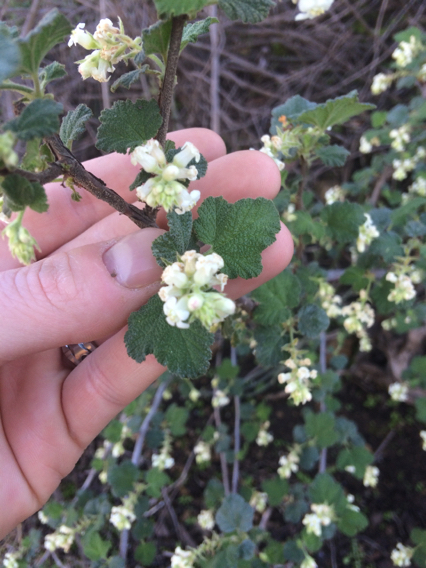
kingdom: Plantae
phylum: Tracheophyta
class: Magnoliopsida
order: Saxifragales
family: Grossulariaceae
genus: Ribes
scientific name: Ribes indecorum
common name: White-flower currant
